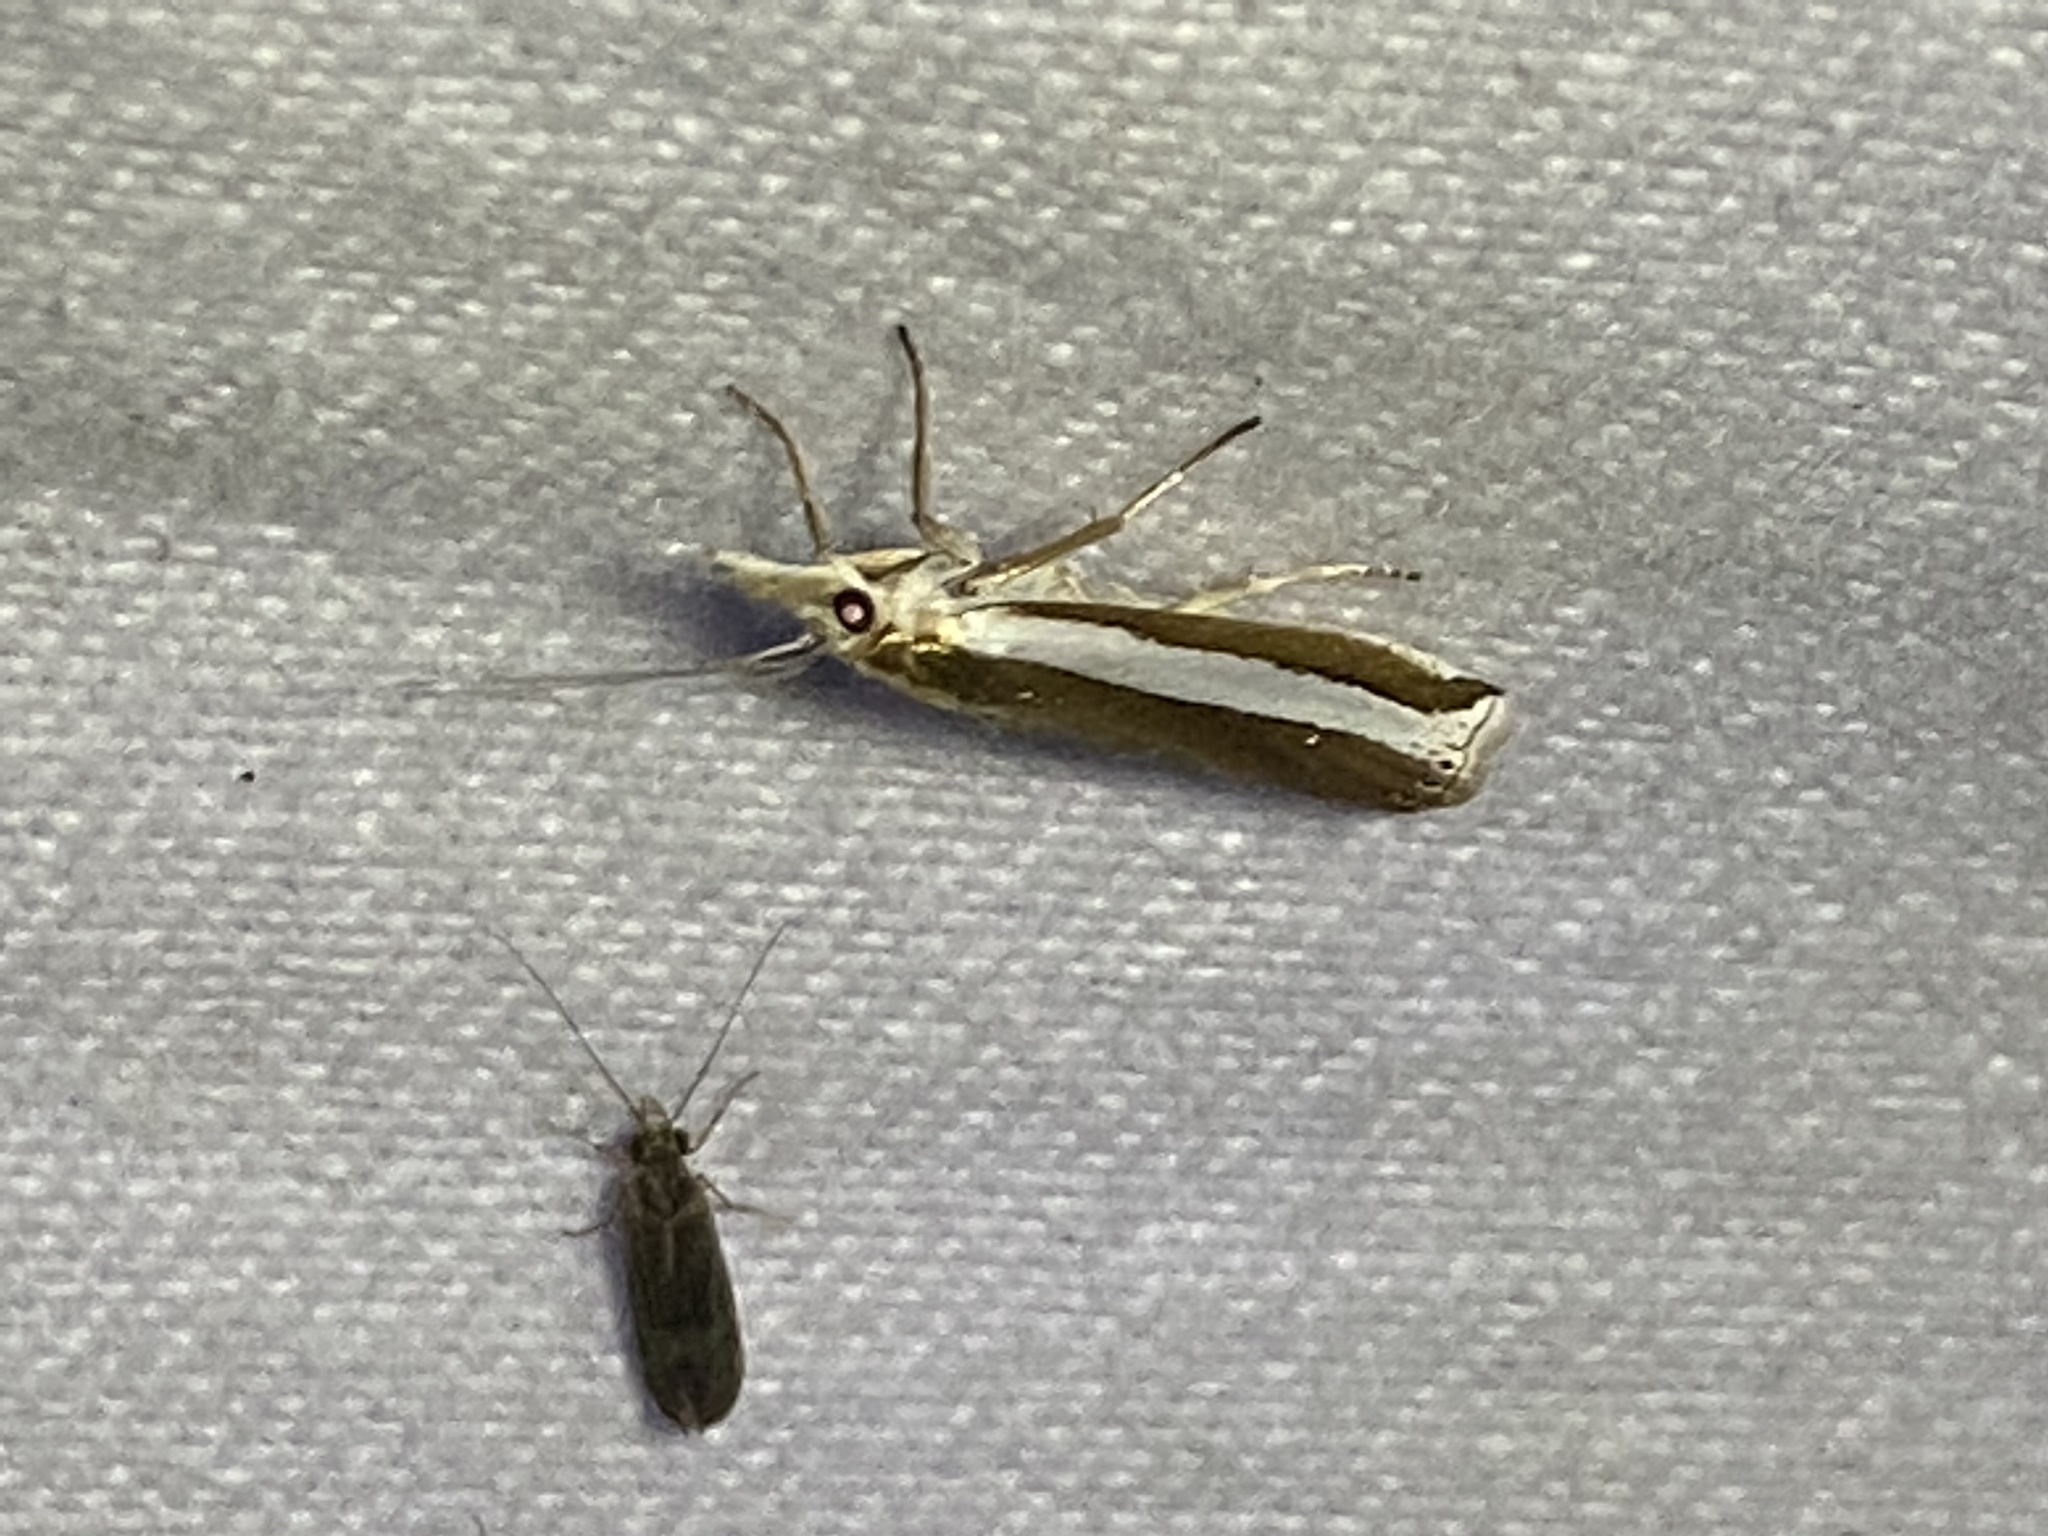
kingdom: Animalia
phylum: Arthropoda
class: Insecta
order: Lepidoptera
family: Crambidae
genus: Crambus
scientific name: Crambus unistriatellus
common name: Wide-stripe grass-veneer moth
